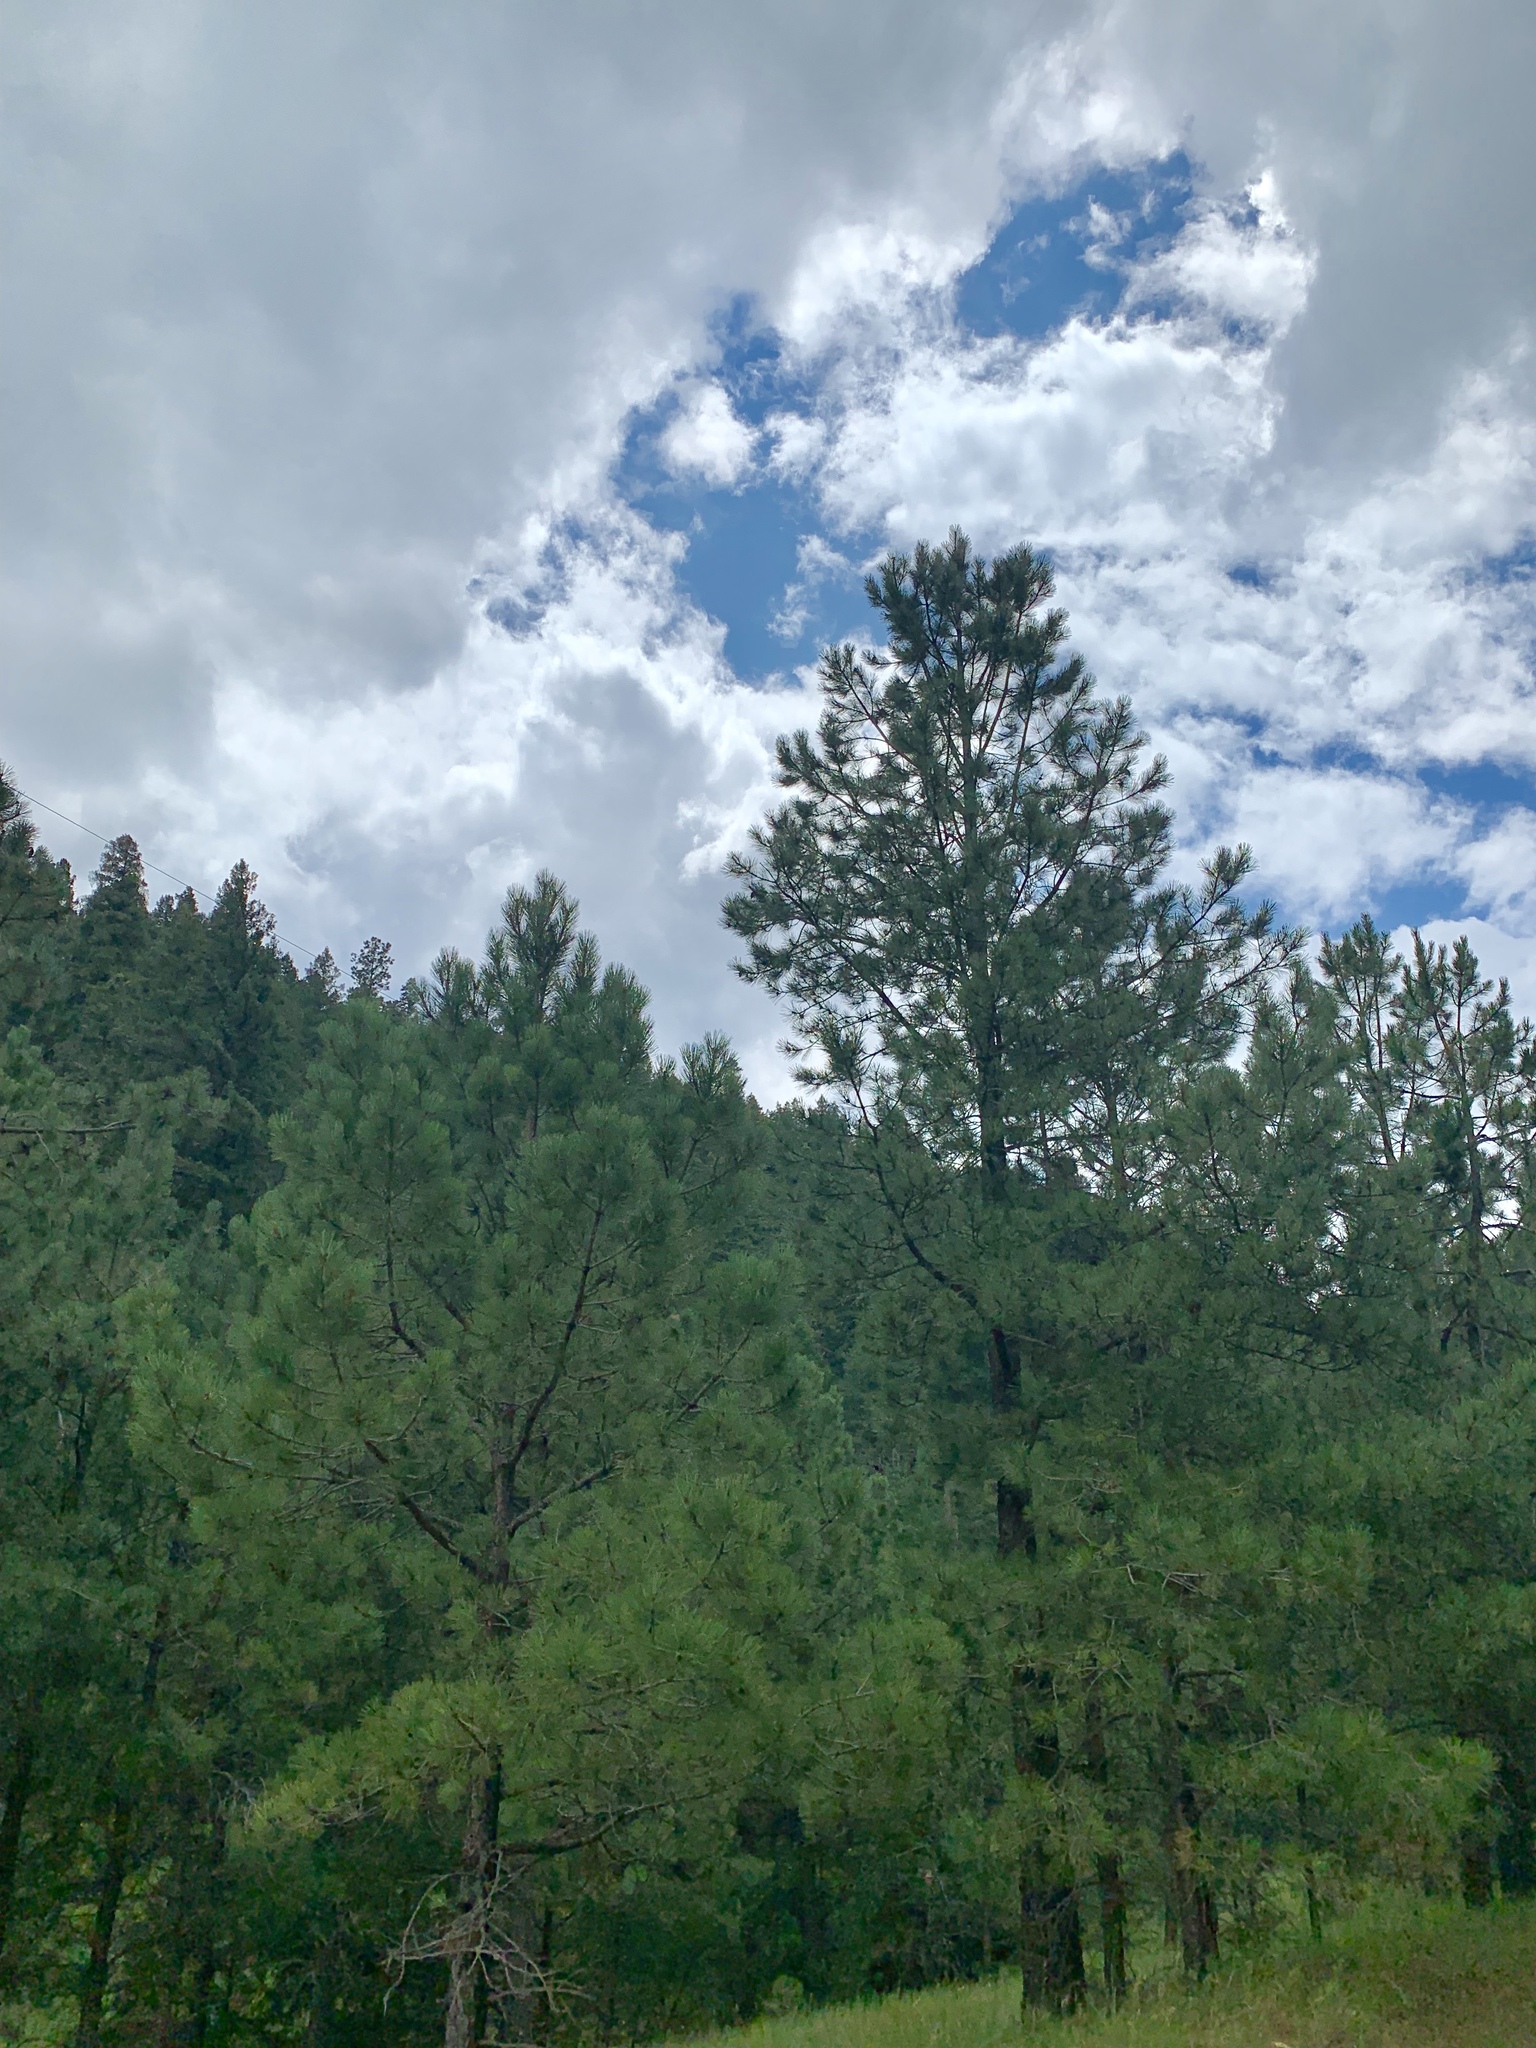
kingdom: Plantae
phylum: Tracheophyta
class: Pinopsida
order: Pinales
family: Pinaceae
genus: Pinus
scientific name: Pinus ponderosa
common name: Western yellow-pine
